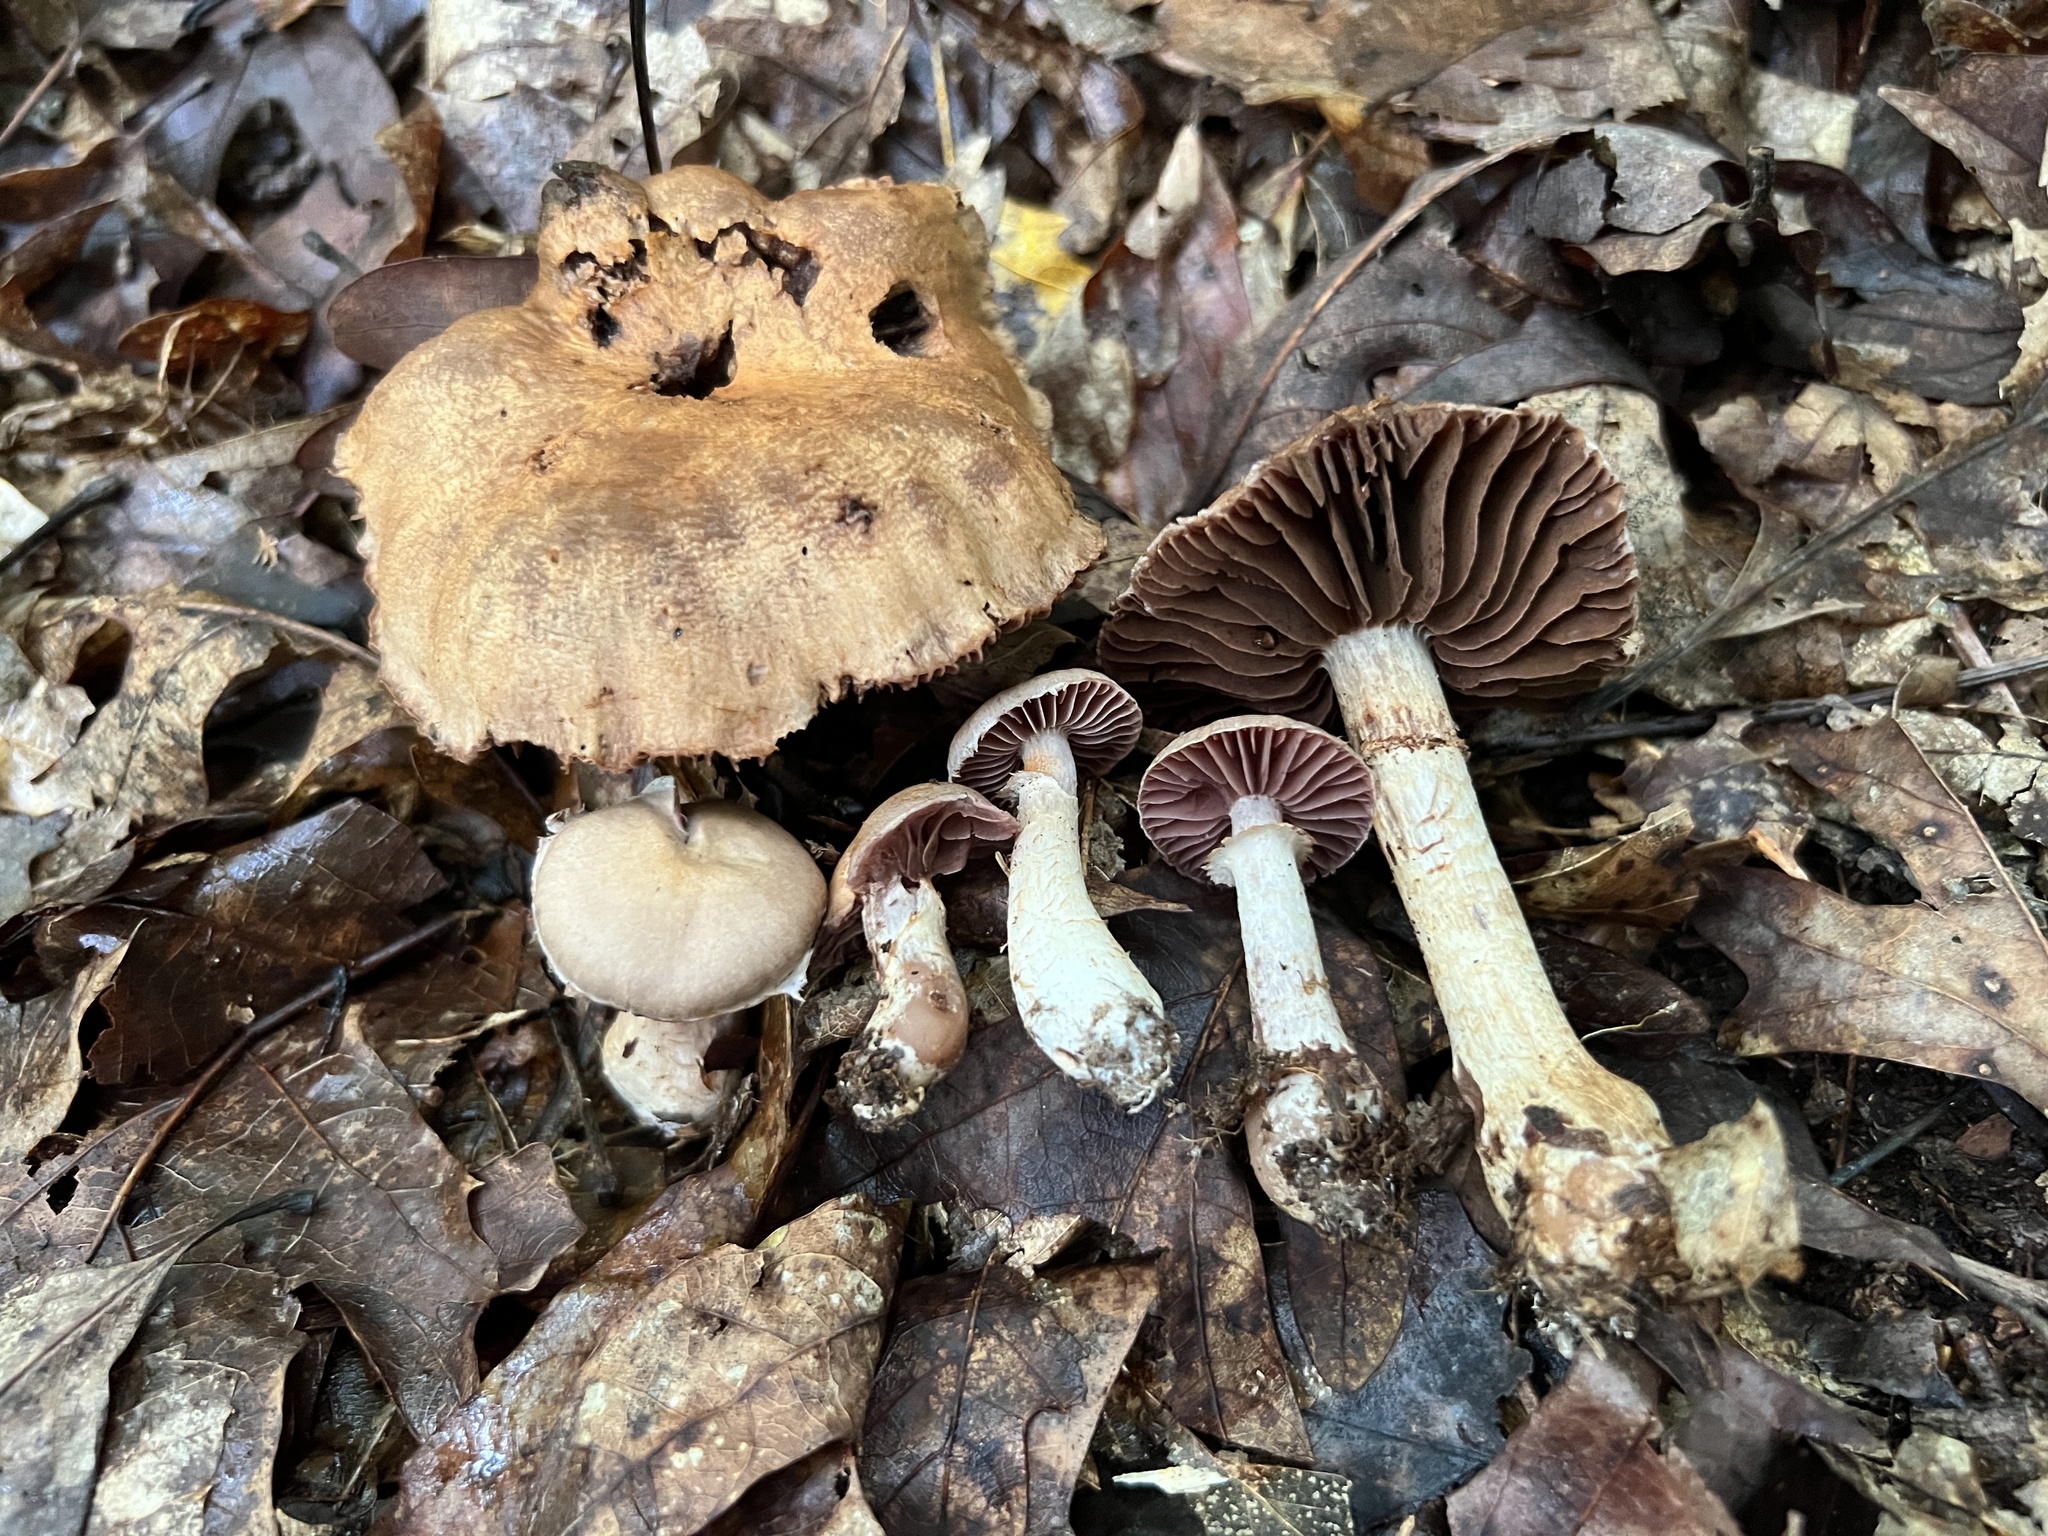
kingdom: Fungi
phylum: Basidiomycota
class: Agaricomycetes
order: Agaricales
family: Cortinariaceae
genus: Cortinarius
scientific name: Cortinarius torvus
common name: Stocking webcap
